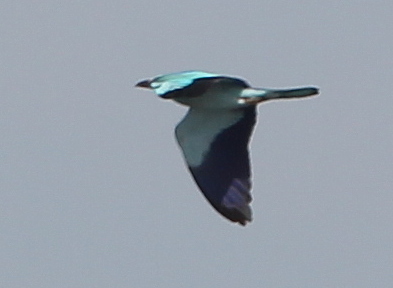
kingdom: Animalia
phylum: Chordata
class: Aves
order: Coraciiformes
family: Coraciidae
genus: Coracias
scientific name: Coracias garrulus
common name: European roller
